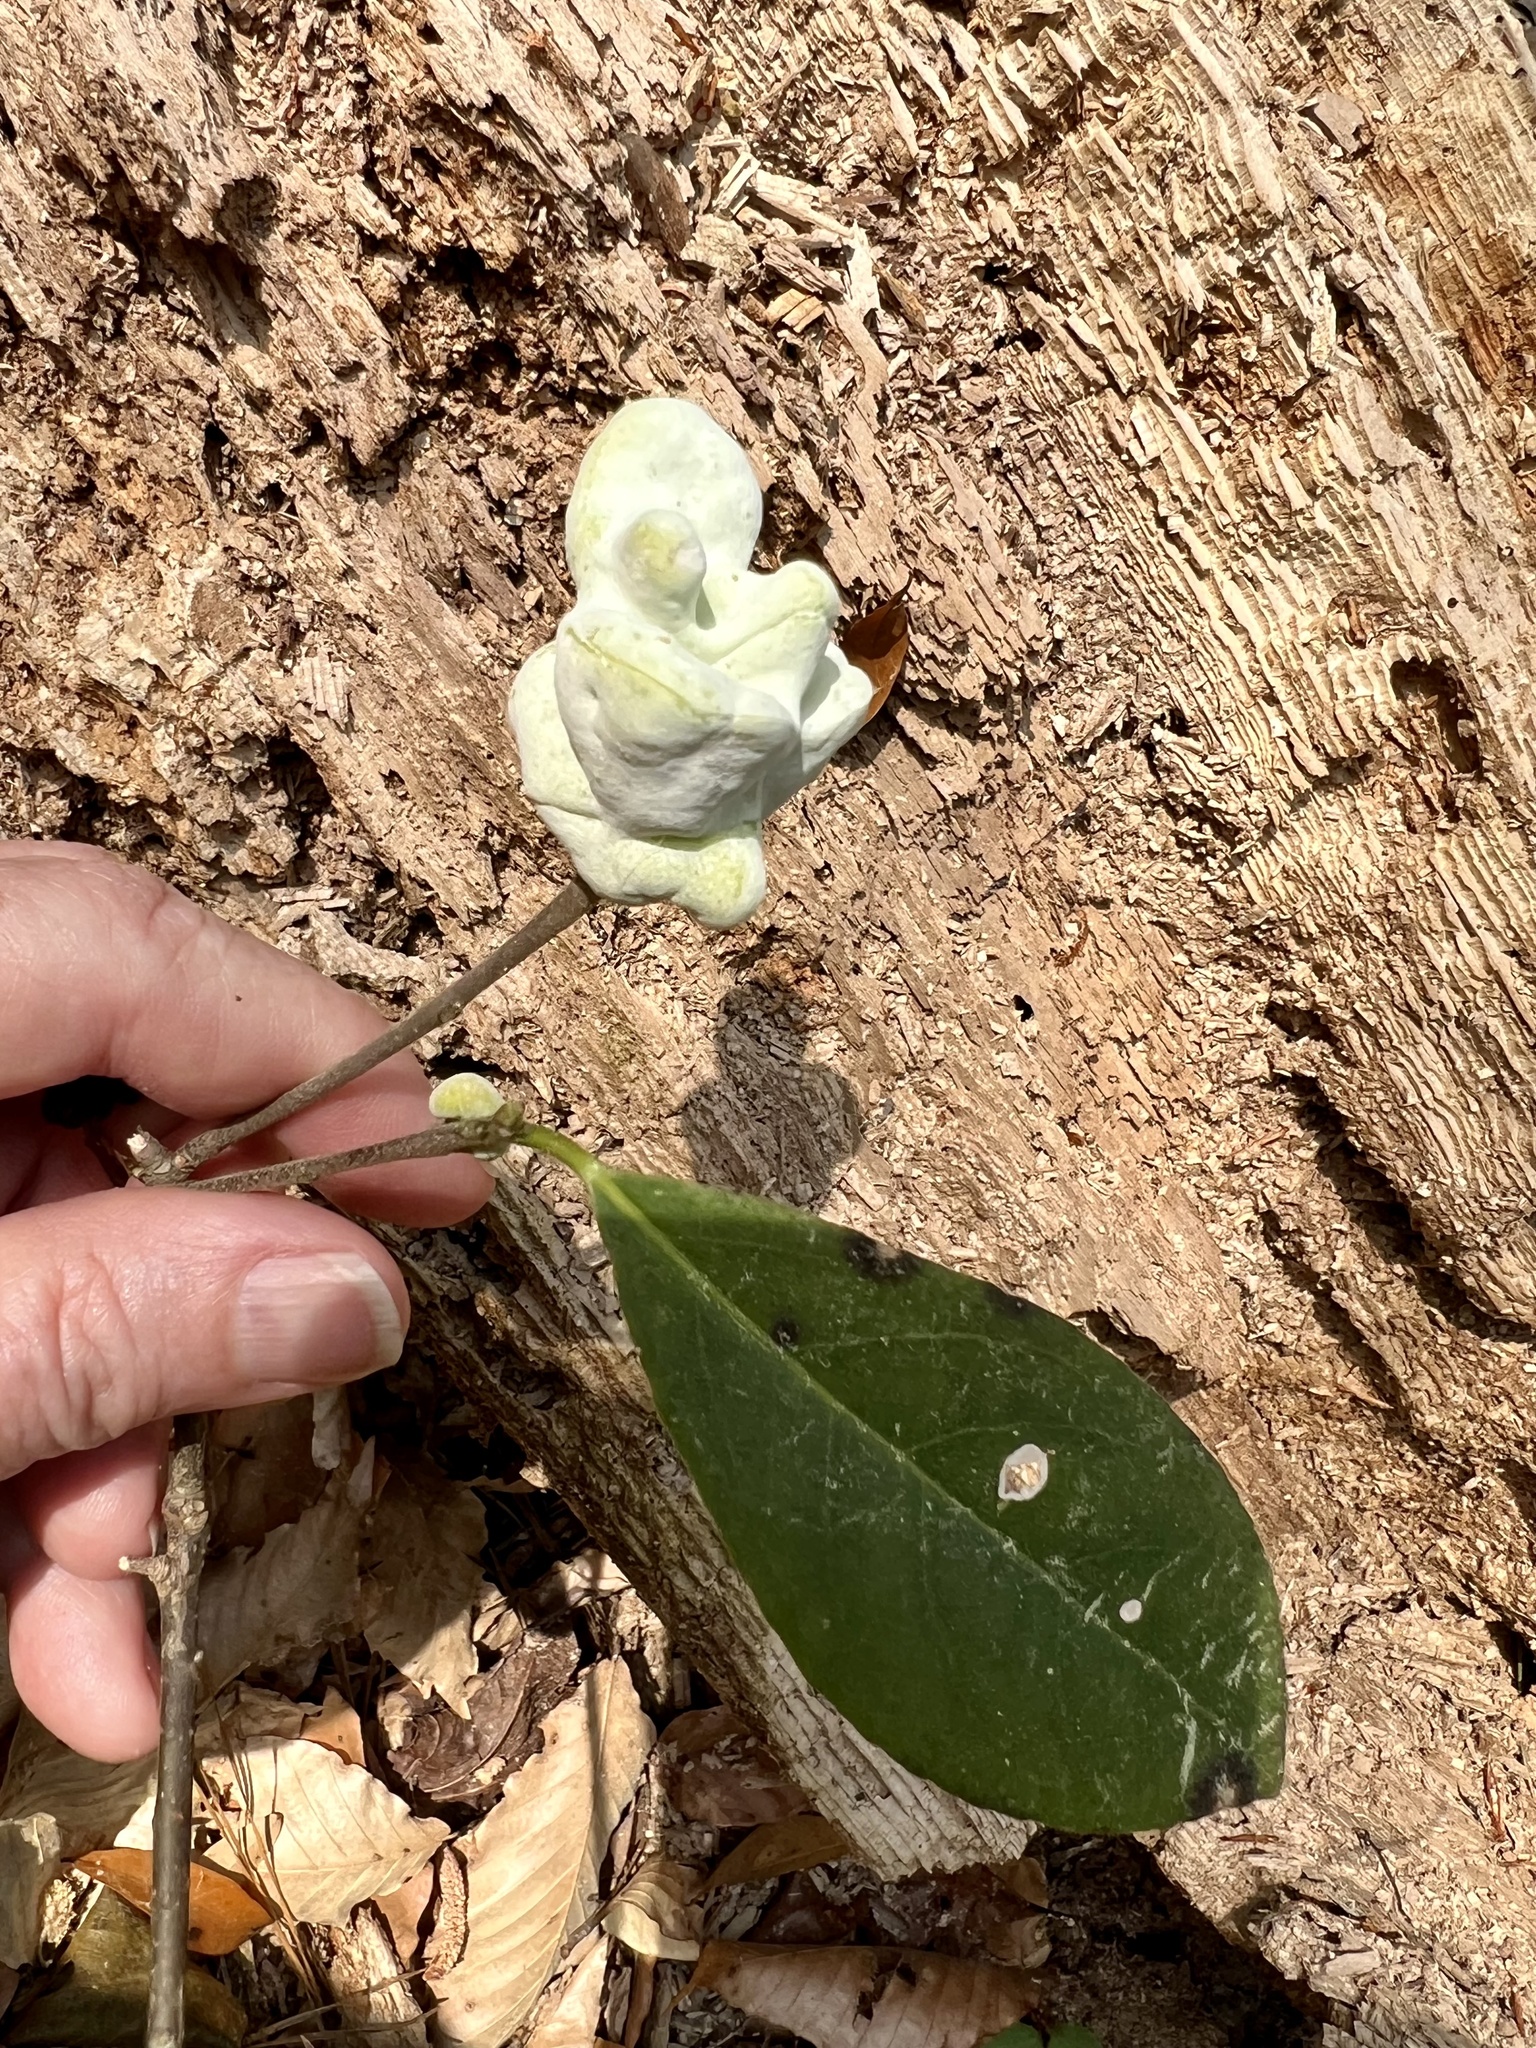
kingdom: Fungi
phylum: Basidiomycota
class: Exobasidiomycetes
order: Exobasidiales
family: Exobasidiaceae
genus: Exobasidium
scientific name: Exobasidium symploci
